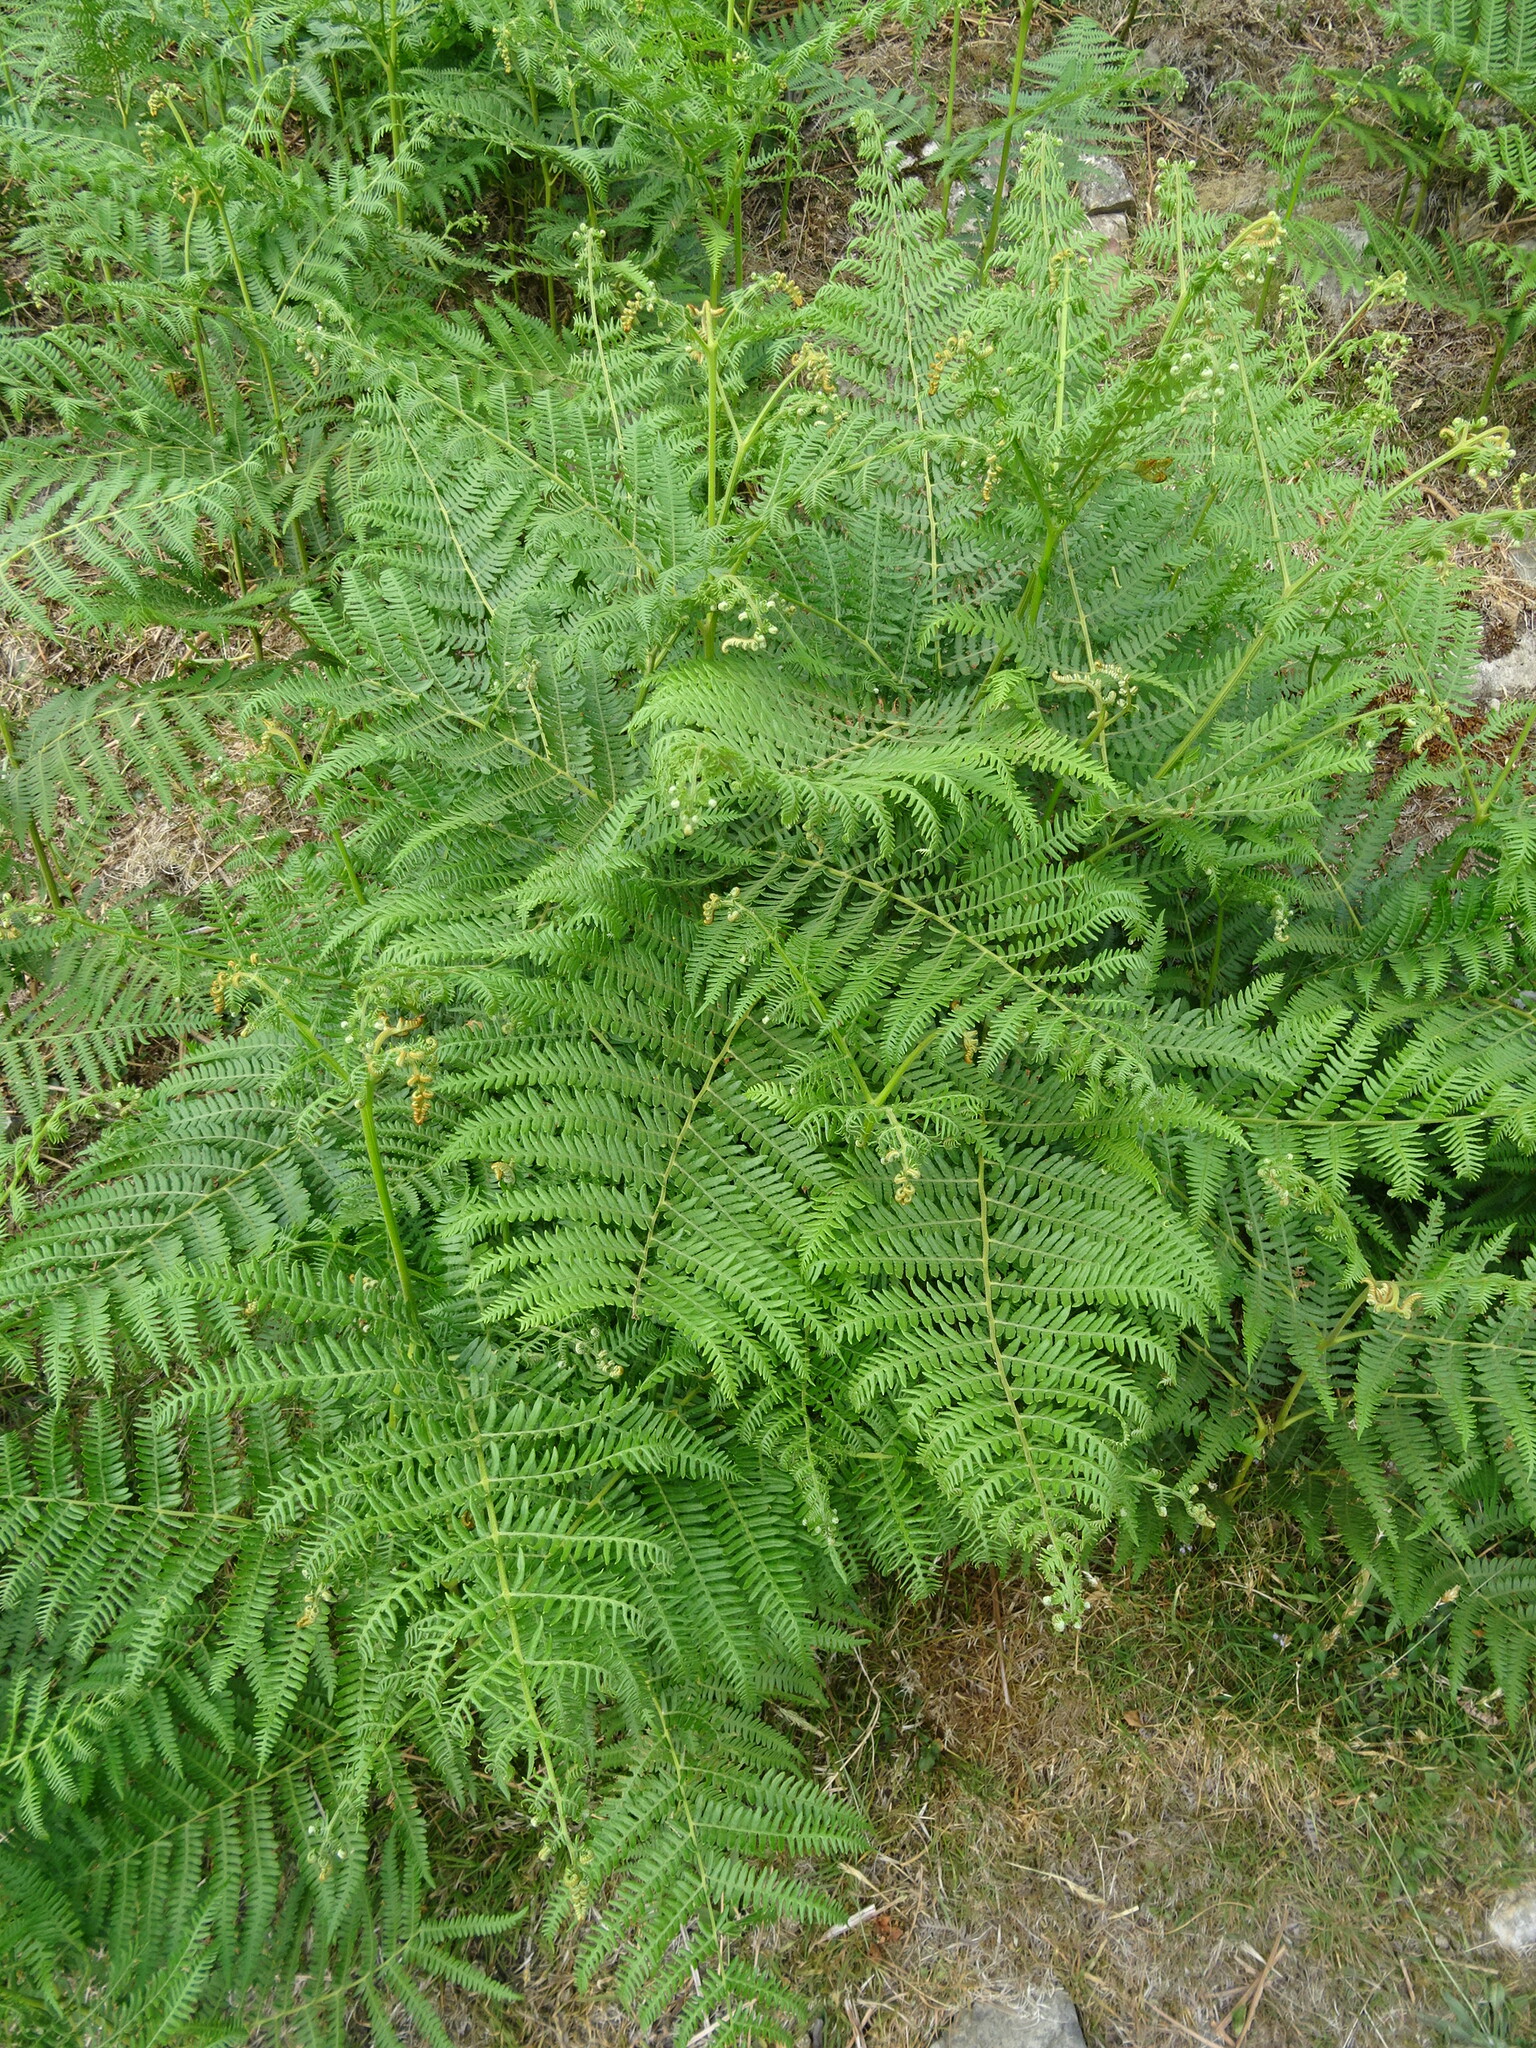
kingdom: Plantae
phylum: Tracheophyta
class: Polypodiopsida
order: Polypodiales
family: Dennstaedtiaceae
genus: Pteridium
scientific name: Pteridium aquilinum
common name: Bracken
